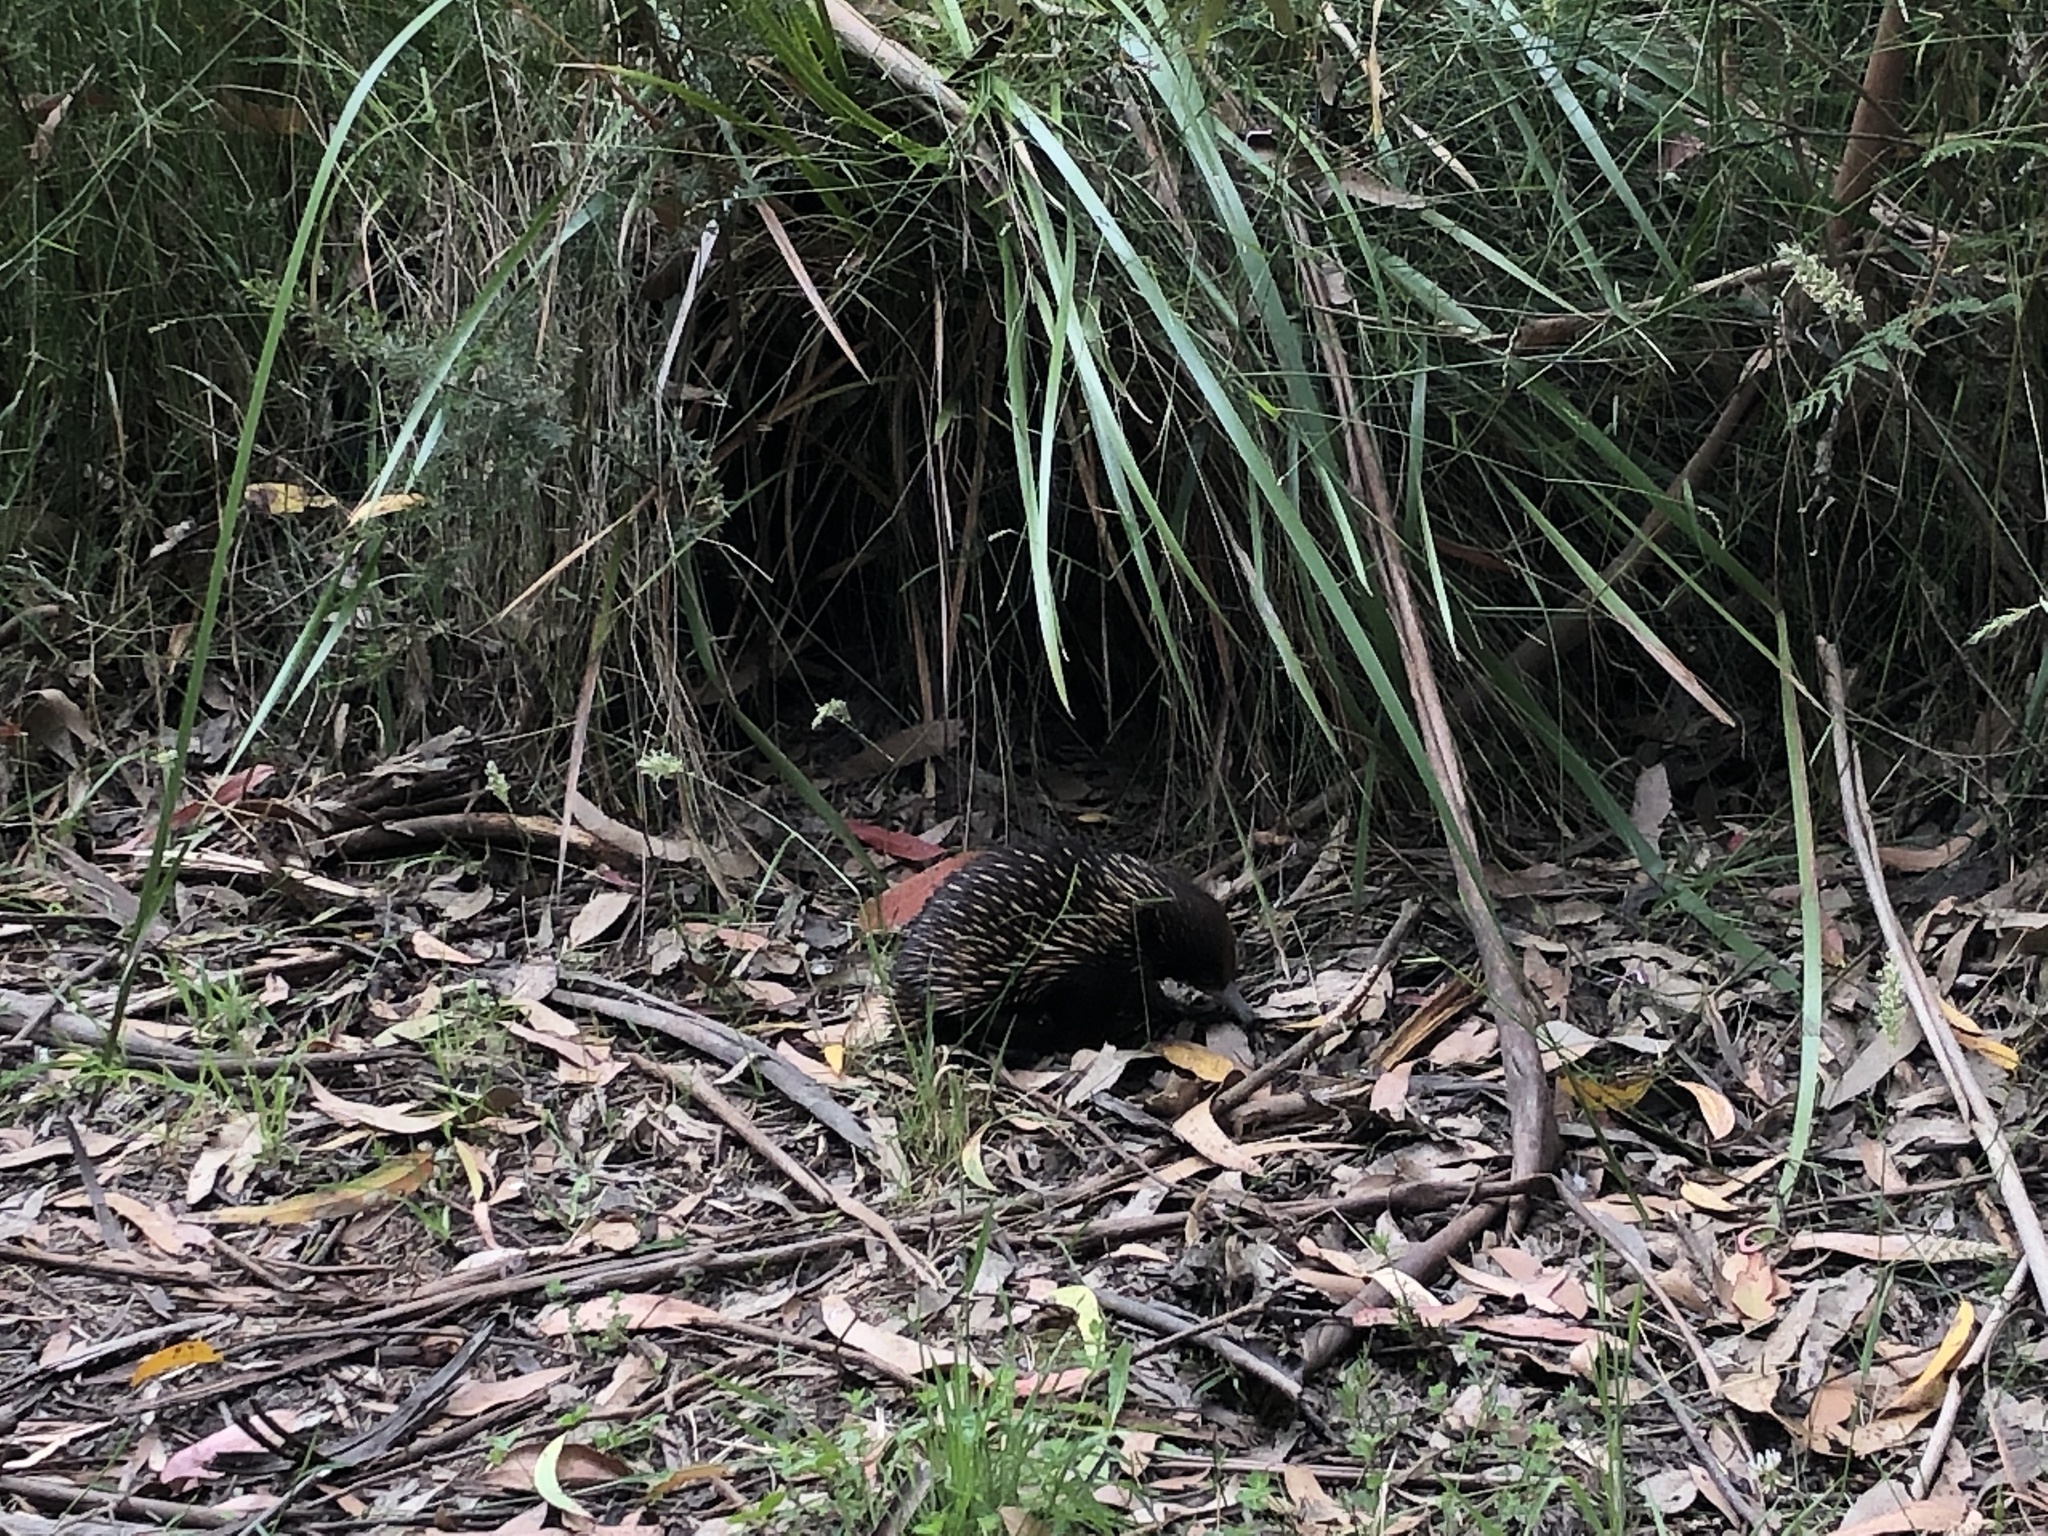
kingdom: Animalia
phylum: Chordata
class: Mammalia
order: Monotremata
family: Tachyglossidae
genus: Tachyglossus
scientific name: Tachyglossus aculeatus
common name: Short-beaked echidna
